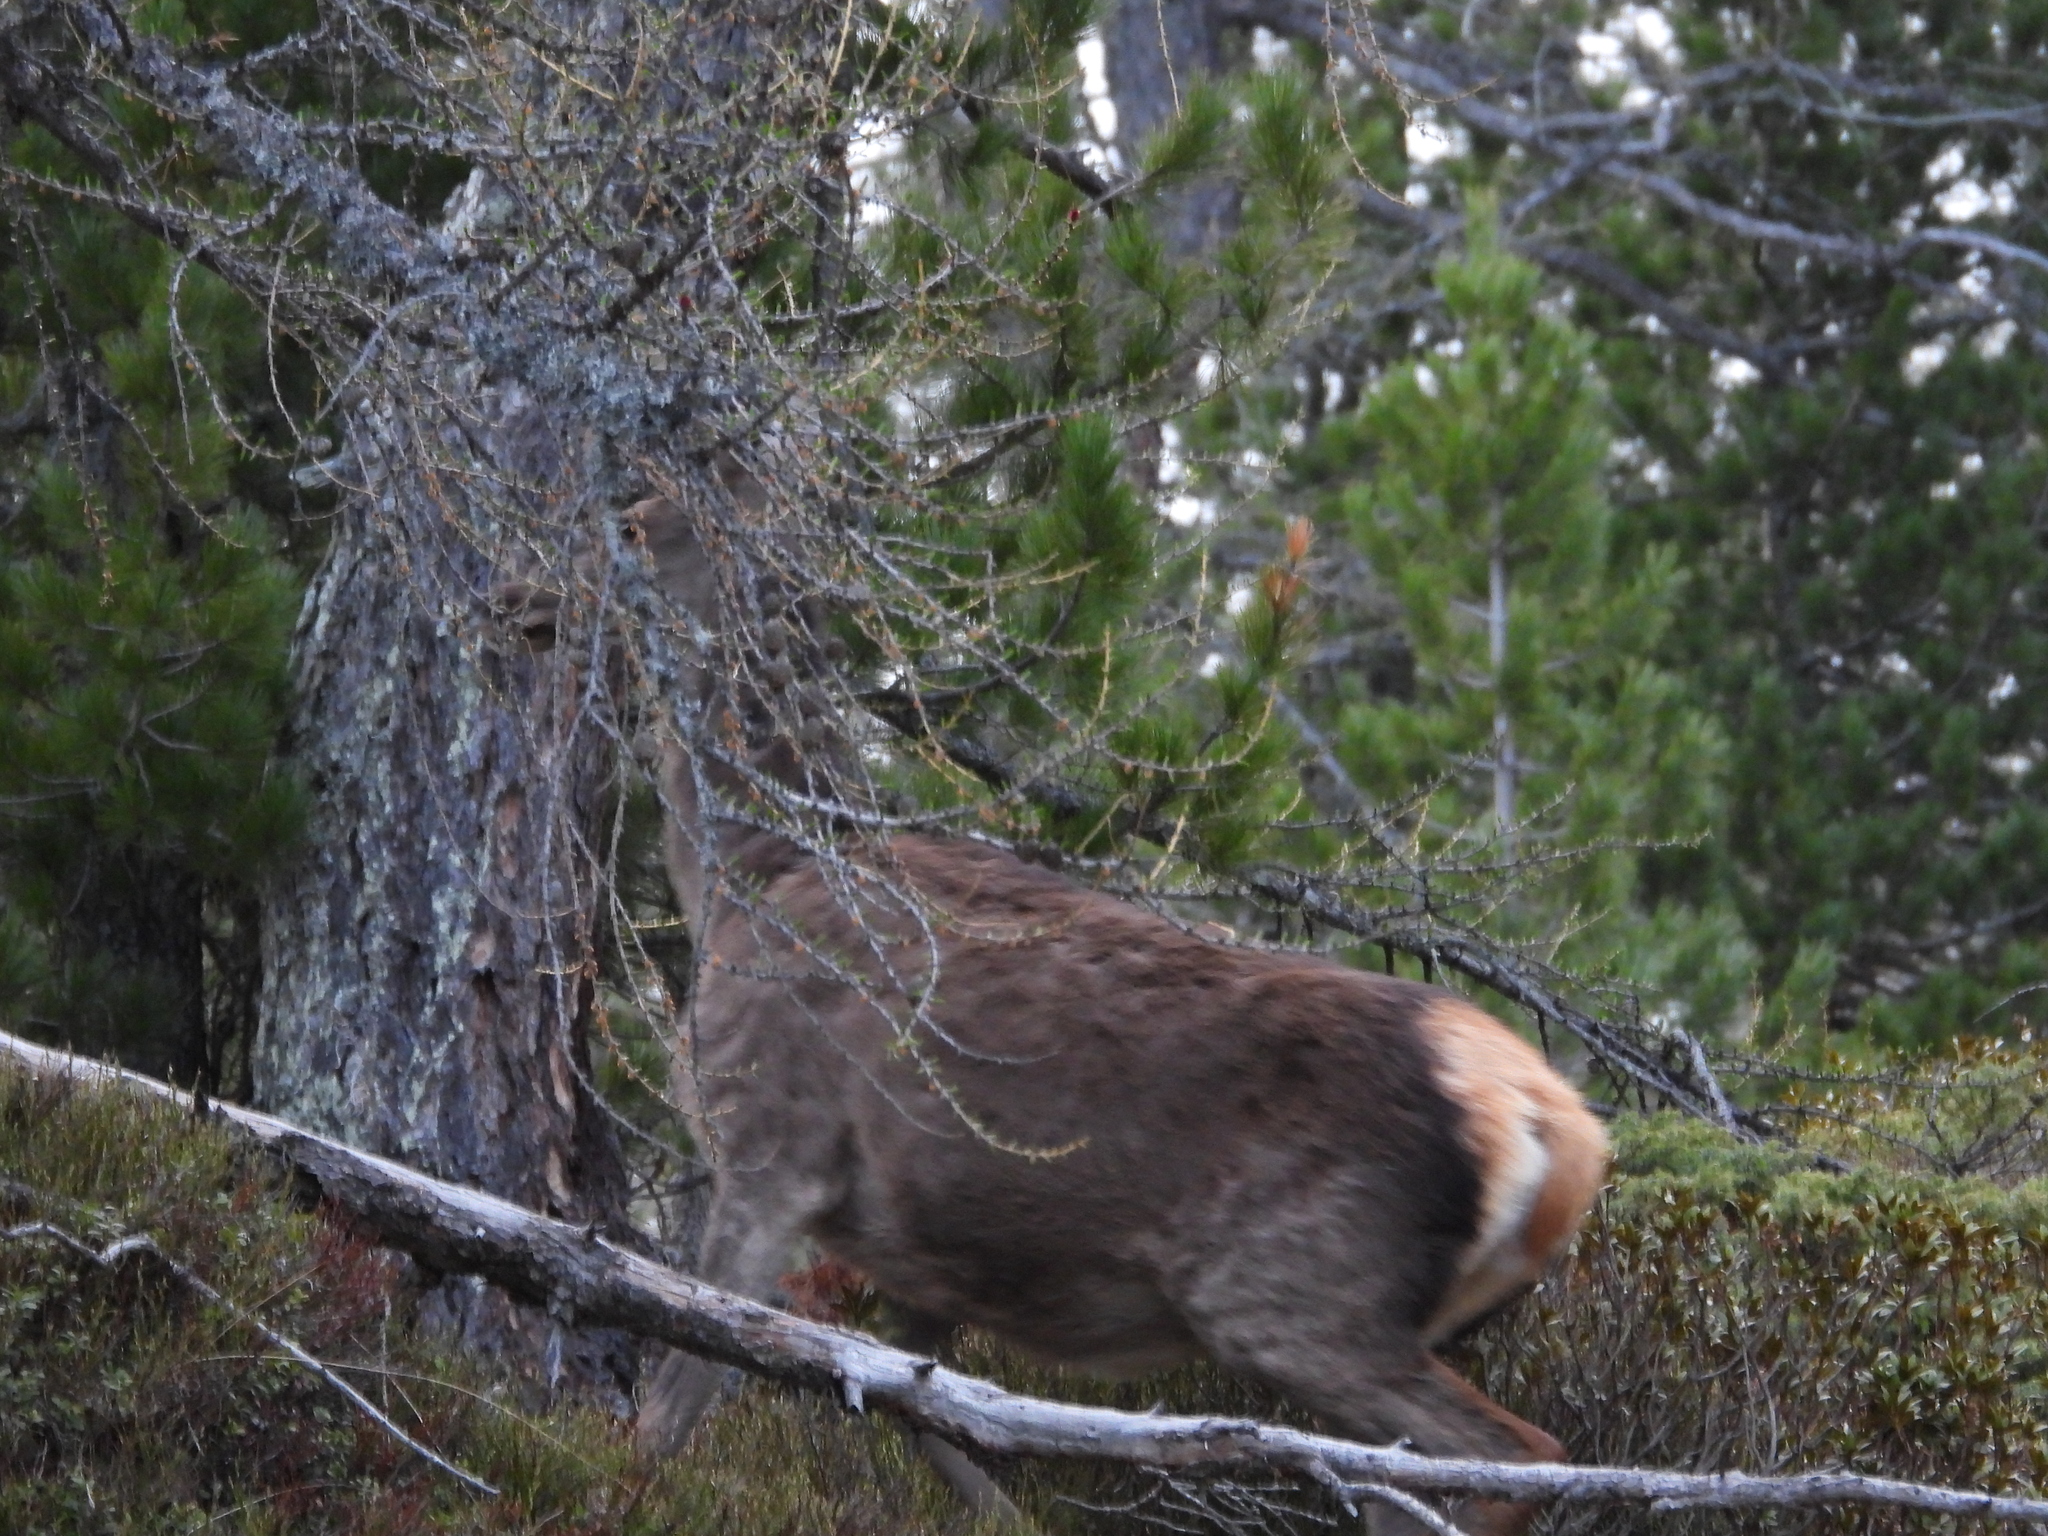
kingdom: Animalia
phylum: Chordata
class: Mammalia
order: Artiodactyla
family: Cervidae
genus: Cervus
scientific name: Cervus elaphus
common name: Red deer
